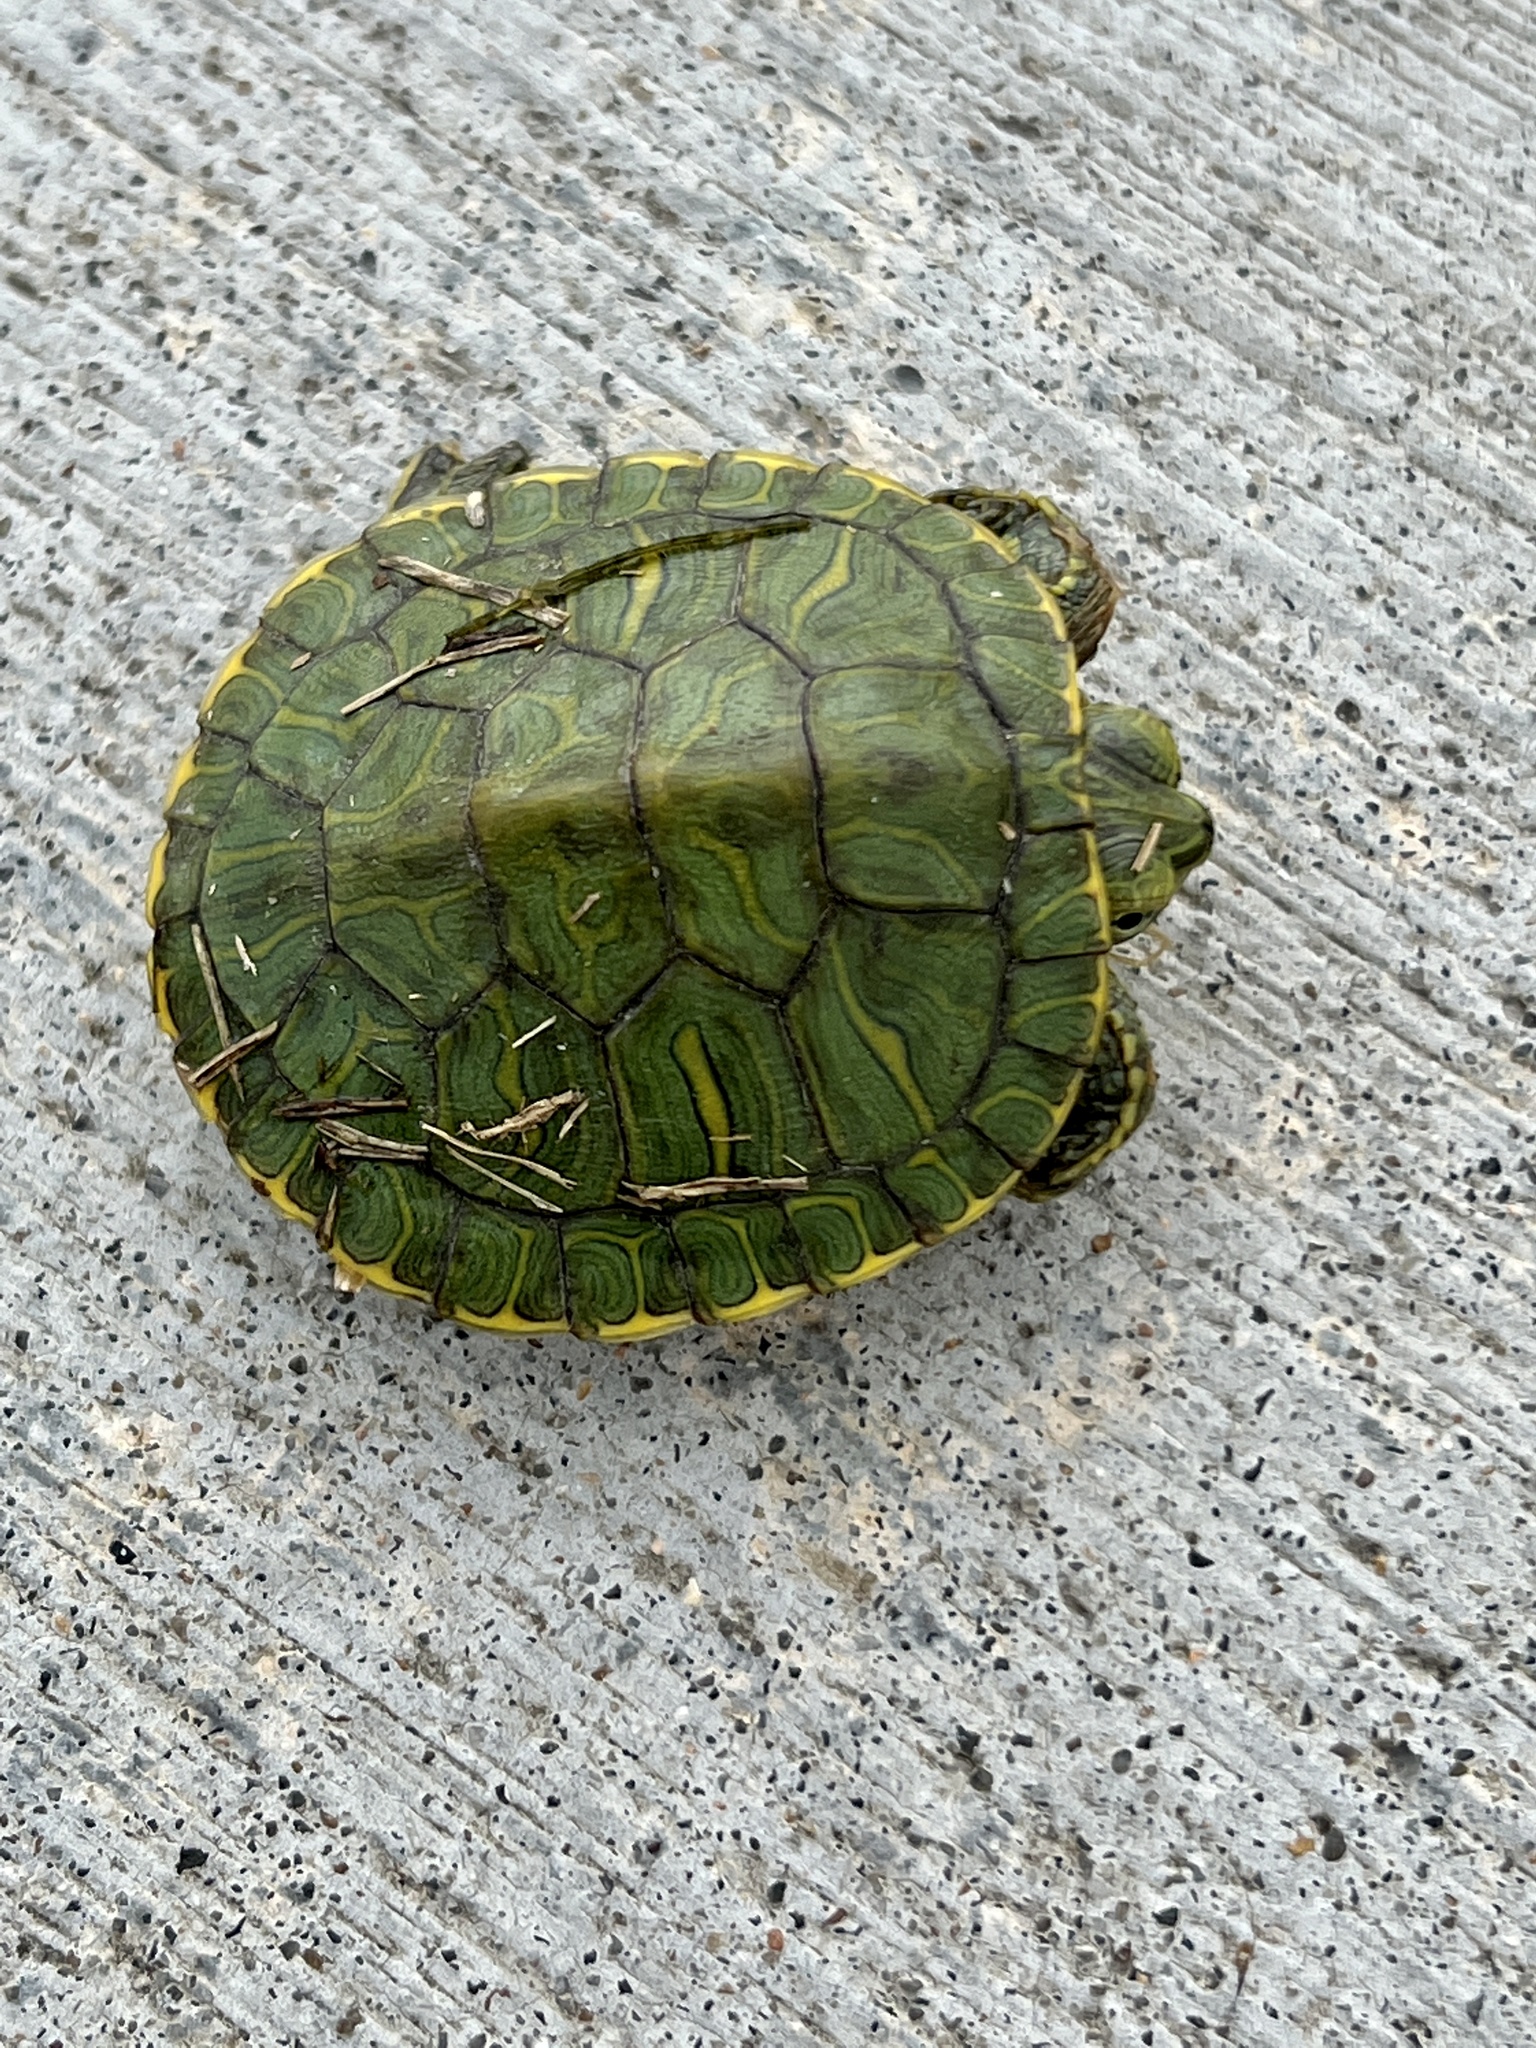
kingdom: Animalia
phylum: Chordata
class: Testudines
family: Emydidae
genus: Trachemys
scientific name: Trachemys scripta
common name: Slider
